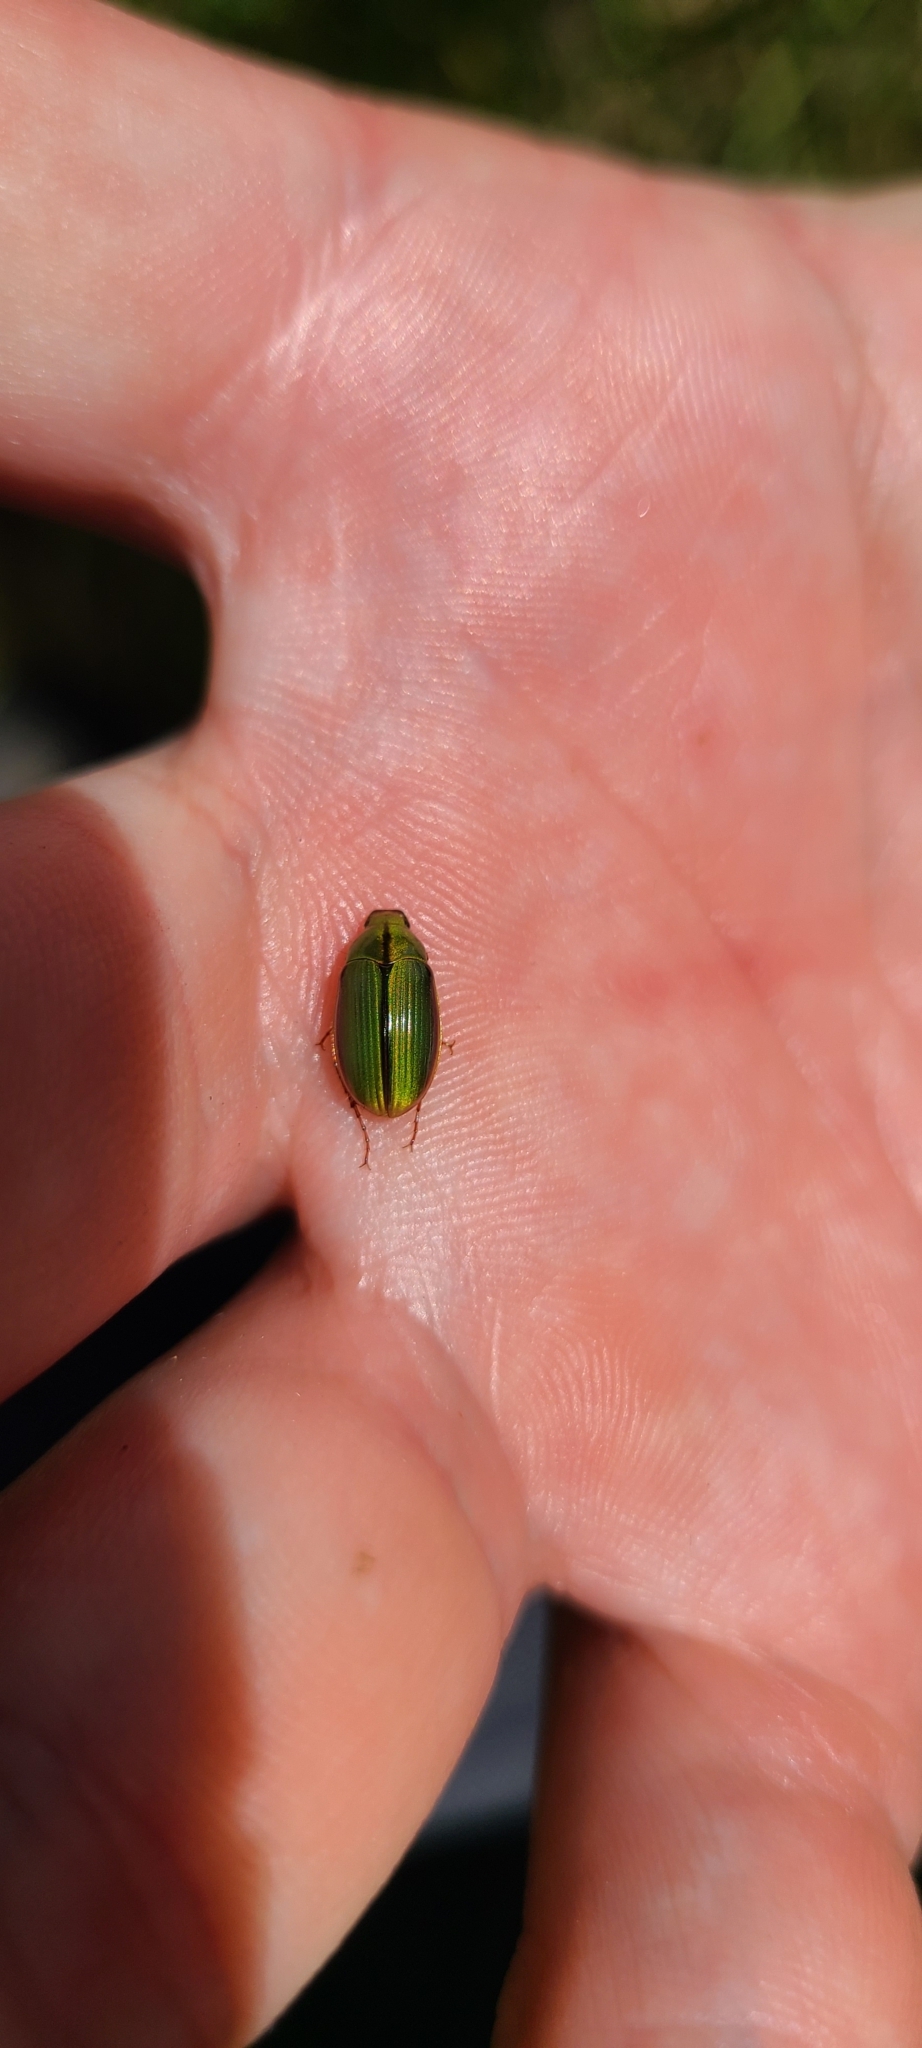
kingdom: Animalia
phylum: Arthropoda
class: Insecta
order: Coleoptera
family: Scarabaeidae
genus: Pyronota
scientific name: Pyronota festiva
